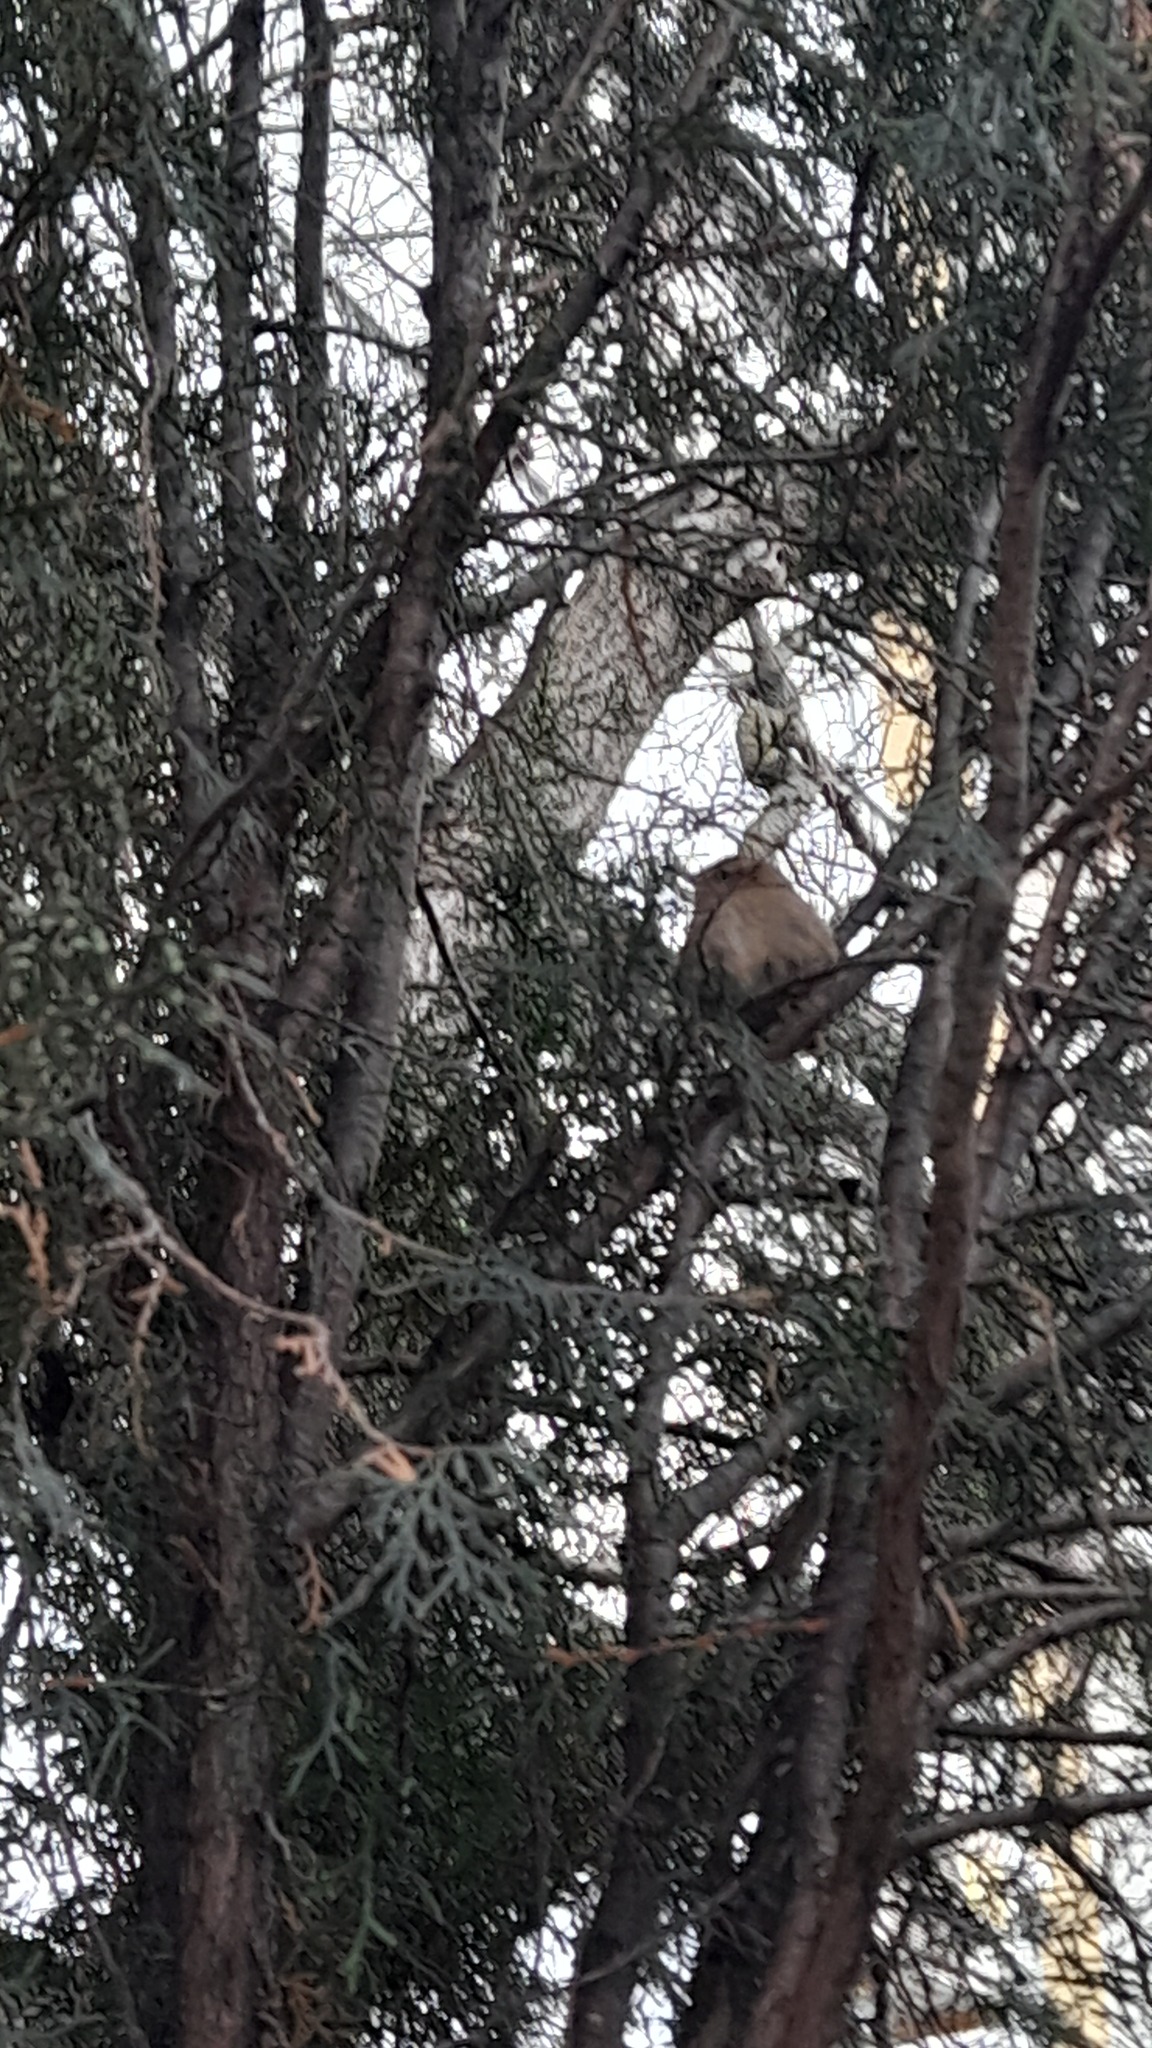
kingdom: Animalia
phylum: Chordata
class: Aves
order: Passeriformes
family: Troglodytidae
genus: Troglodytes
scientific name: Troglodytes troglodytes
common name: Eurasian wren
